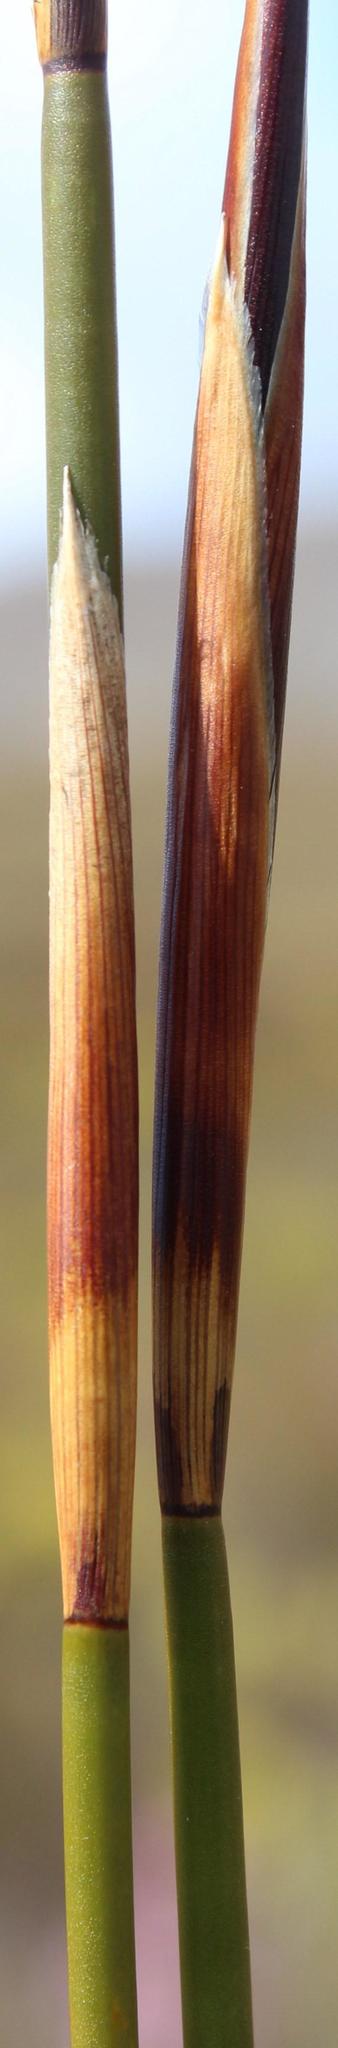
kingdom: Plantae
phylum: Tracheophyta
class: Liliopsida
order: Poales
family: Restionaceae
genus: Ceratocaryum
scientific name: Ceratocaryum decipiens
